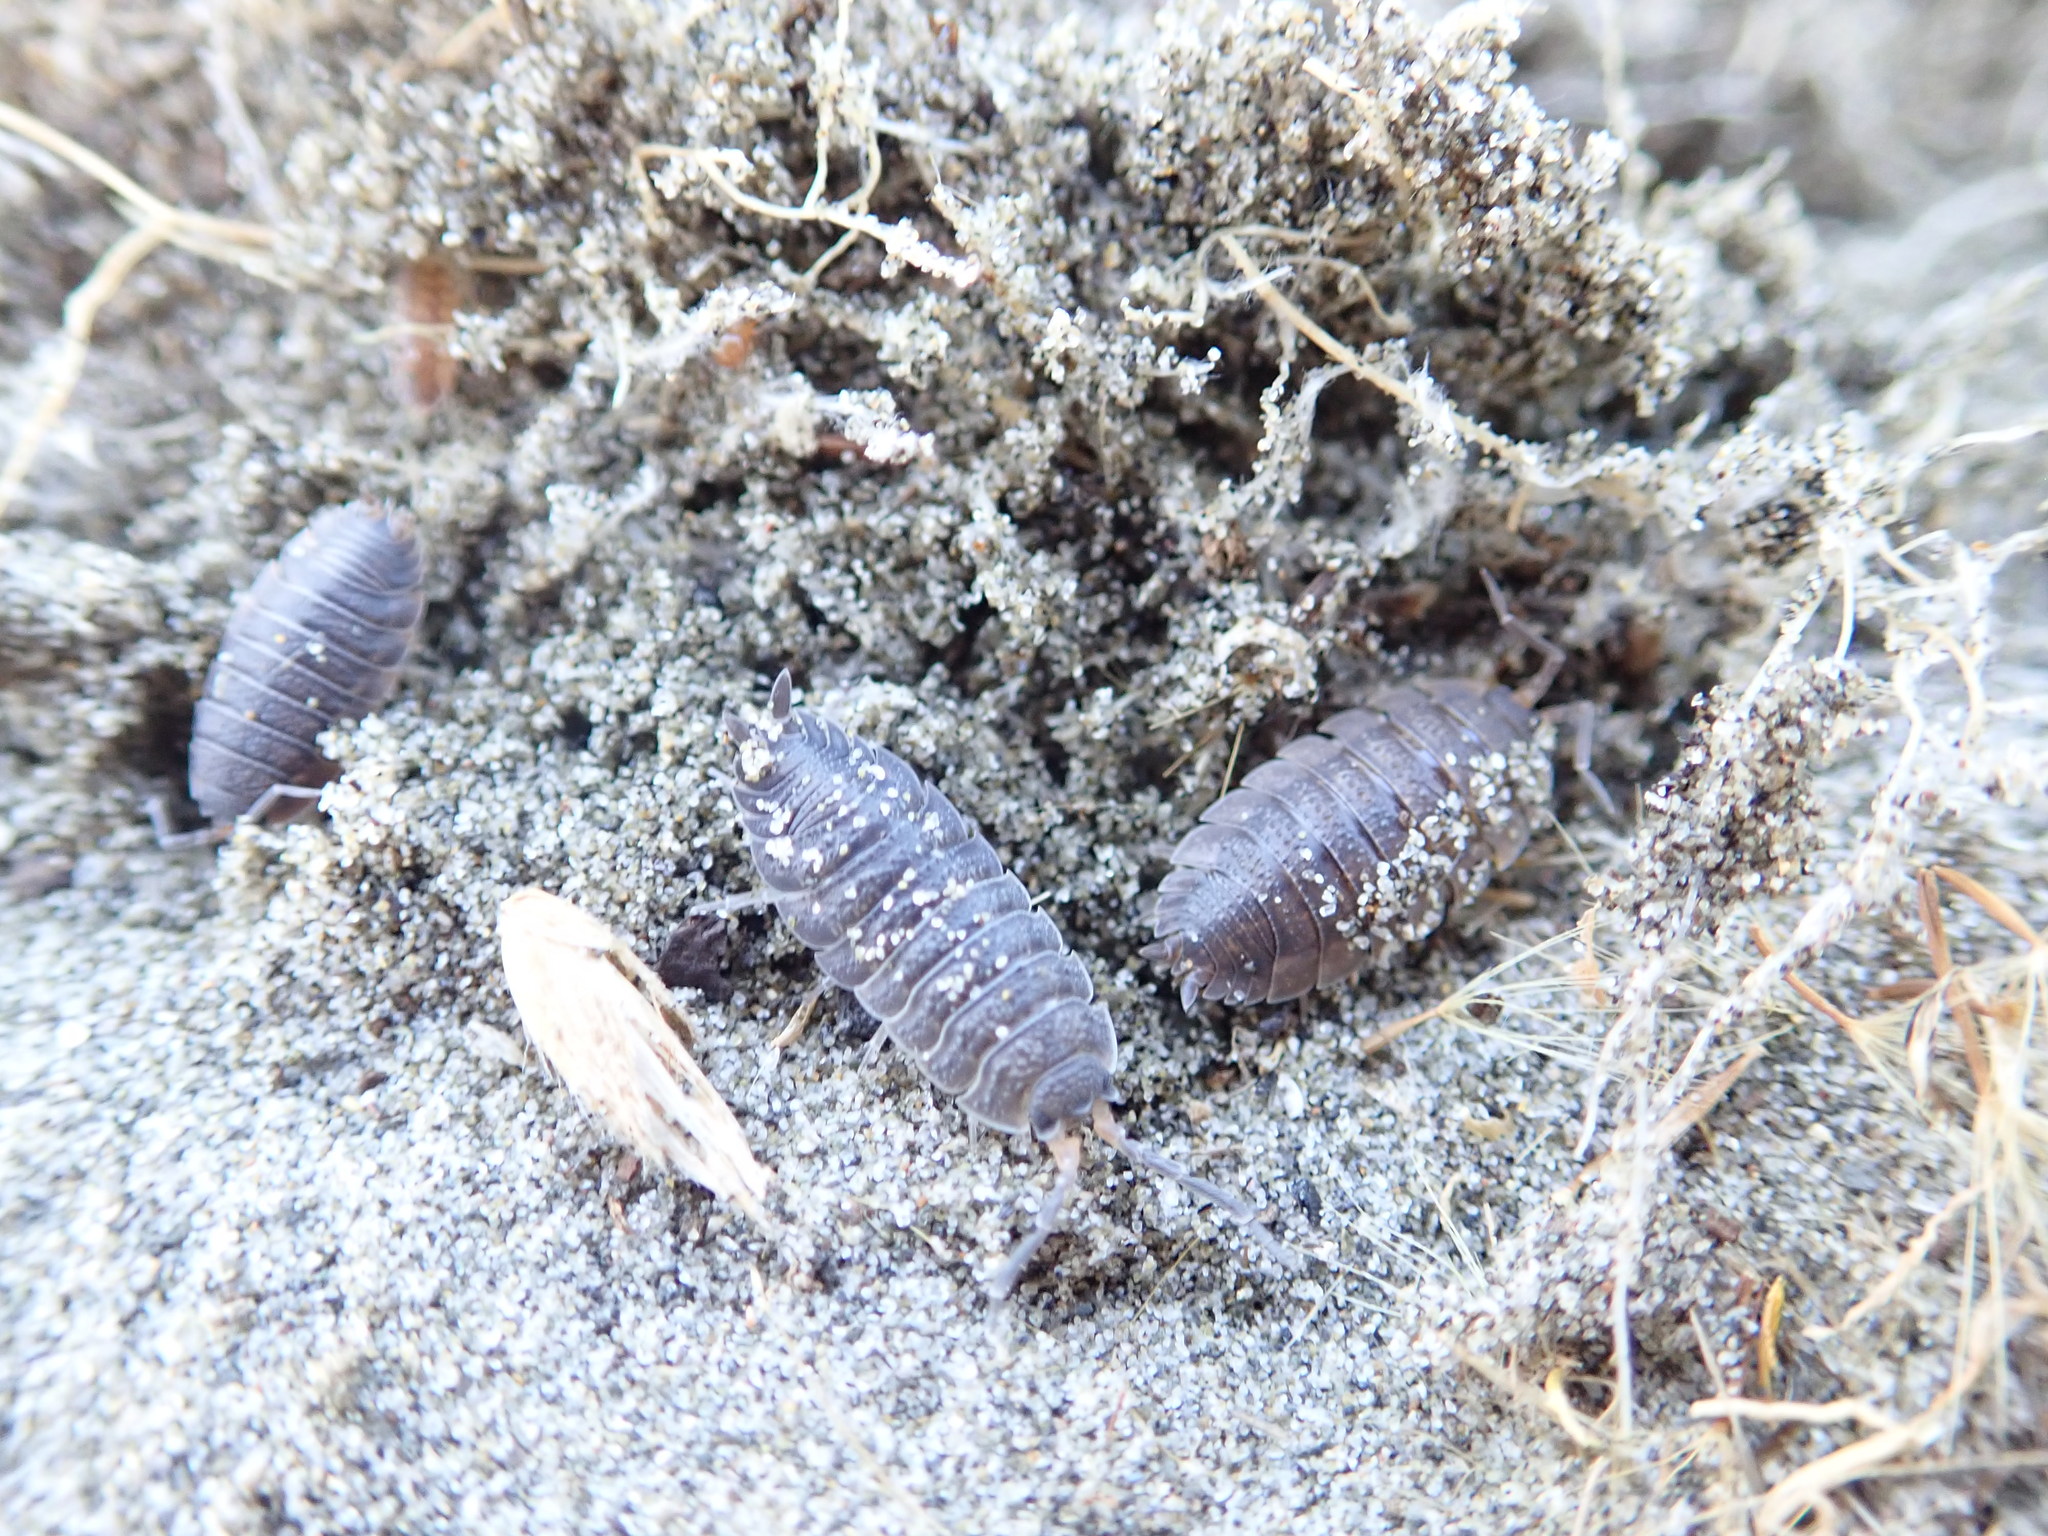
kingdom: Animalia
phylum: Arthropoda
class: Malacostraca
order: Isopoda
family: Porcellionidae
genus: Porcellio
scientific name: Porcellio scaber
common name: Common rough woodlouse
